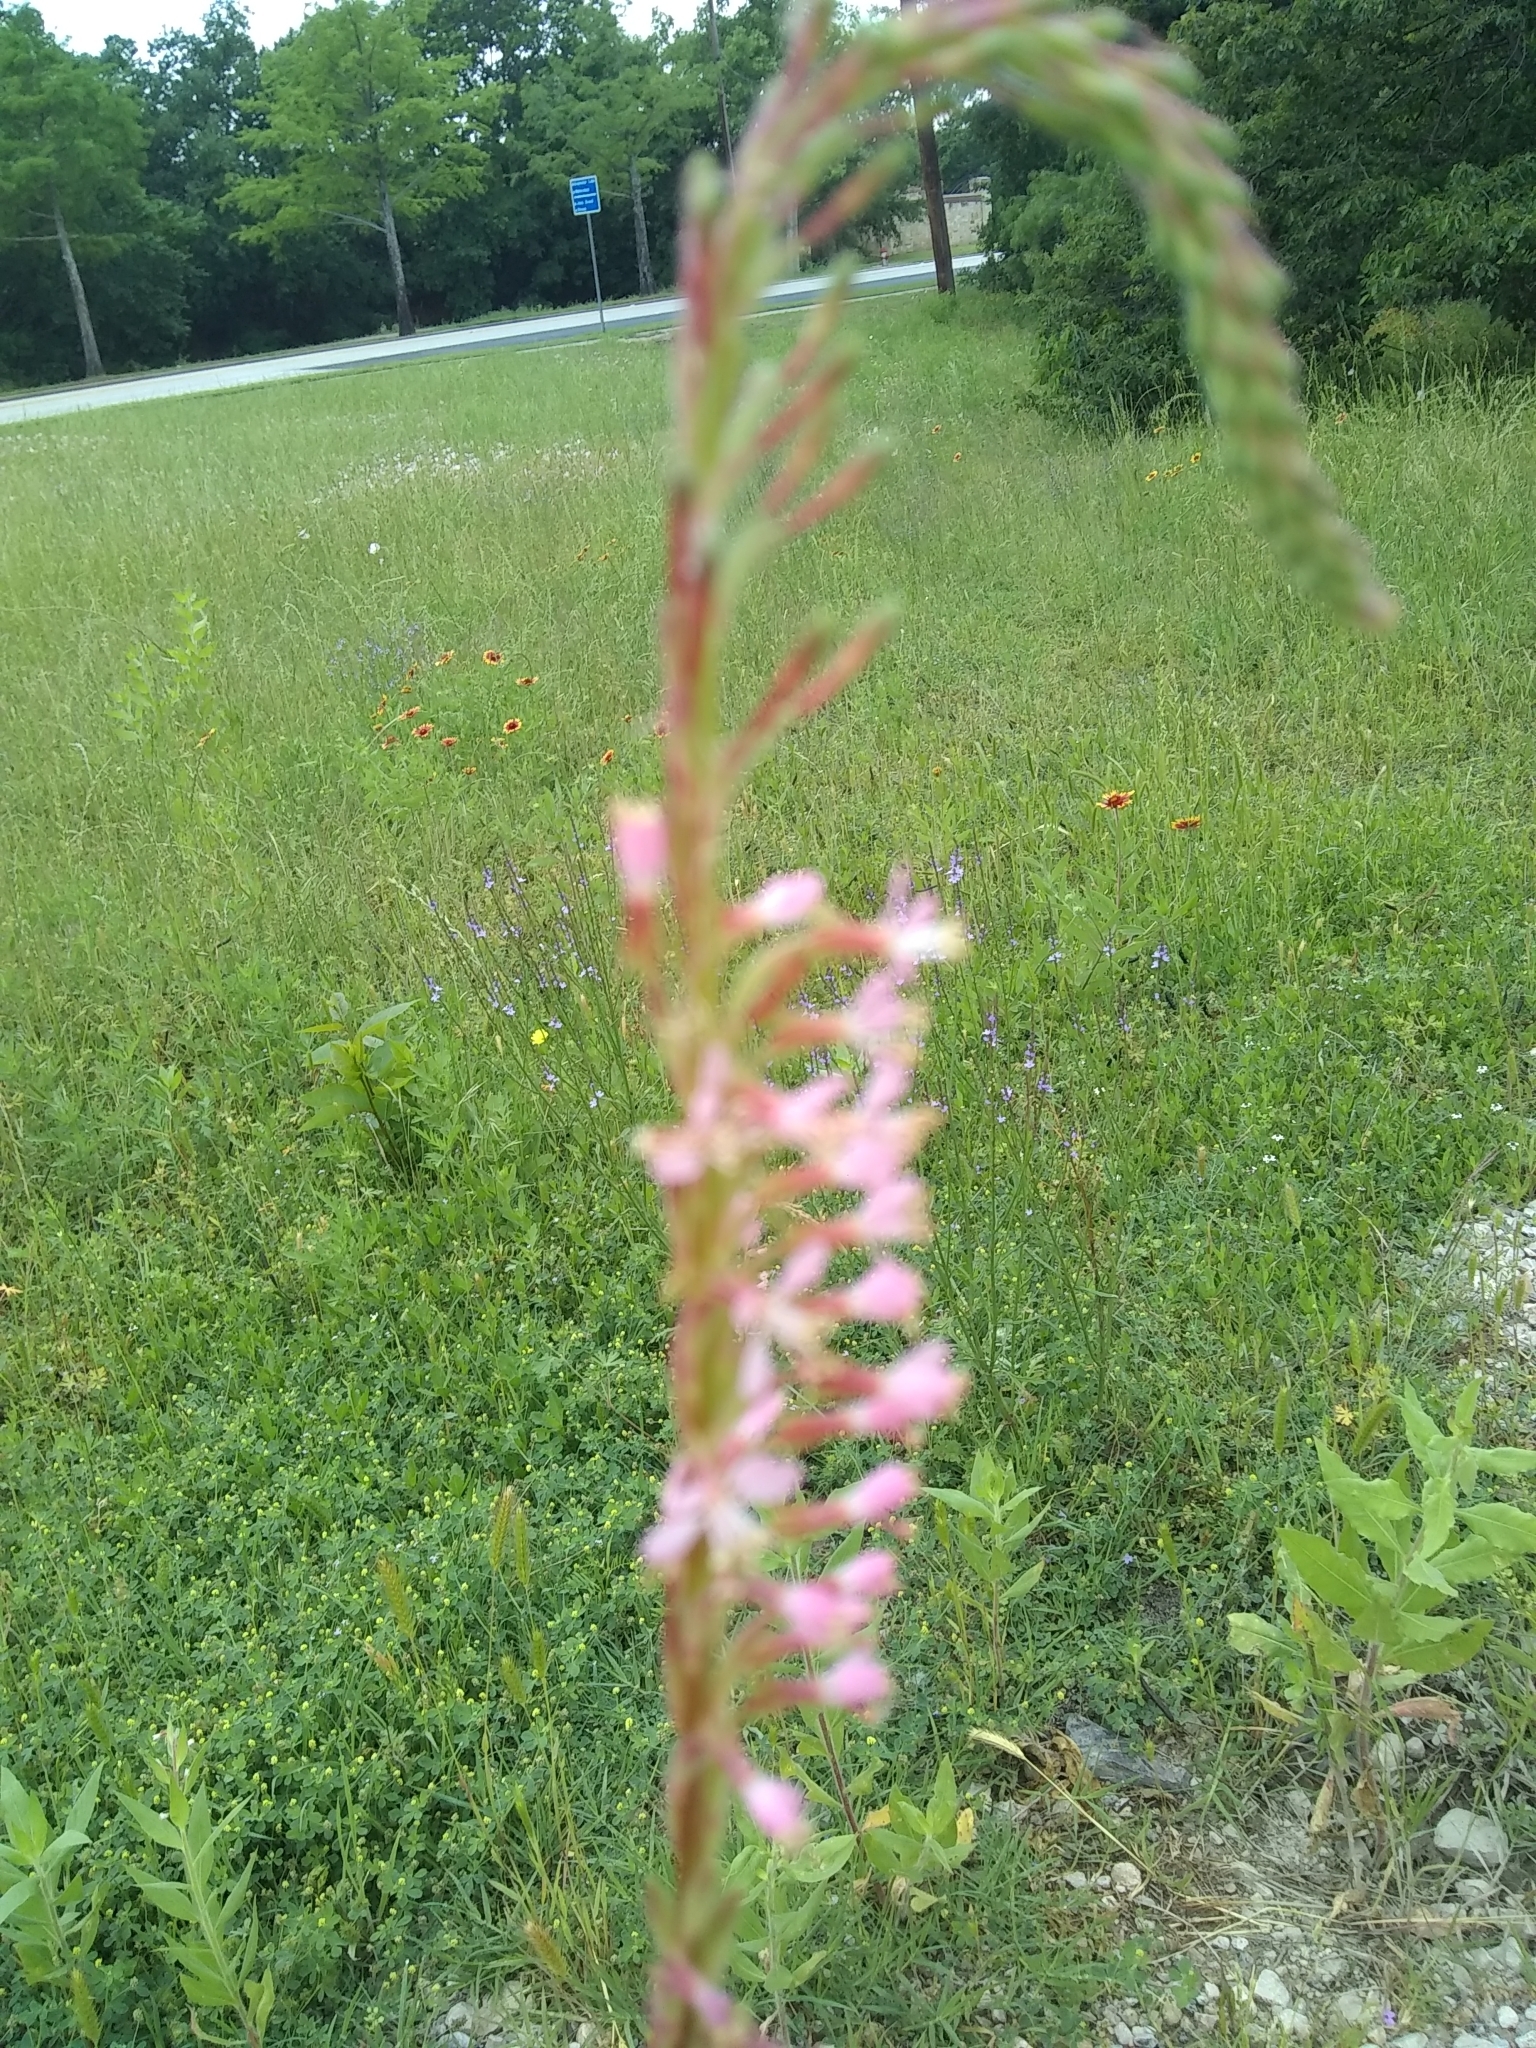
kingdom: Plantae
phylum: Tracheophyta
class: Magnoliopsida
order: Myrtales
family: Onagraceae
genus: Oenothera
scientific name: Oenothera curtiflora
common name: Velvetweed
